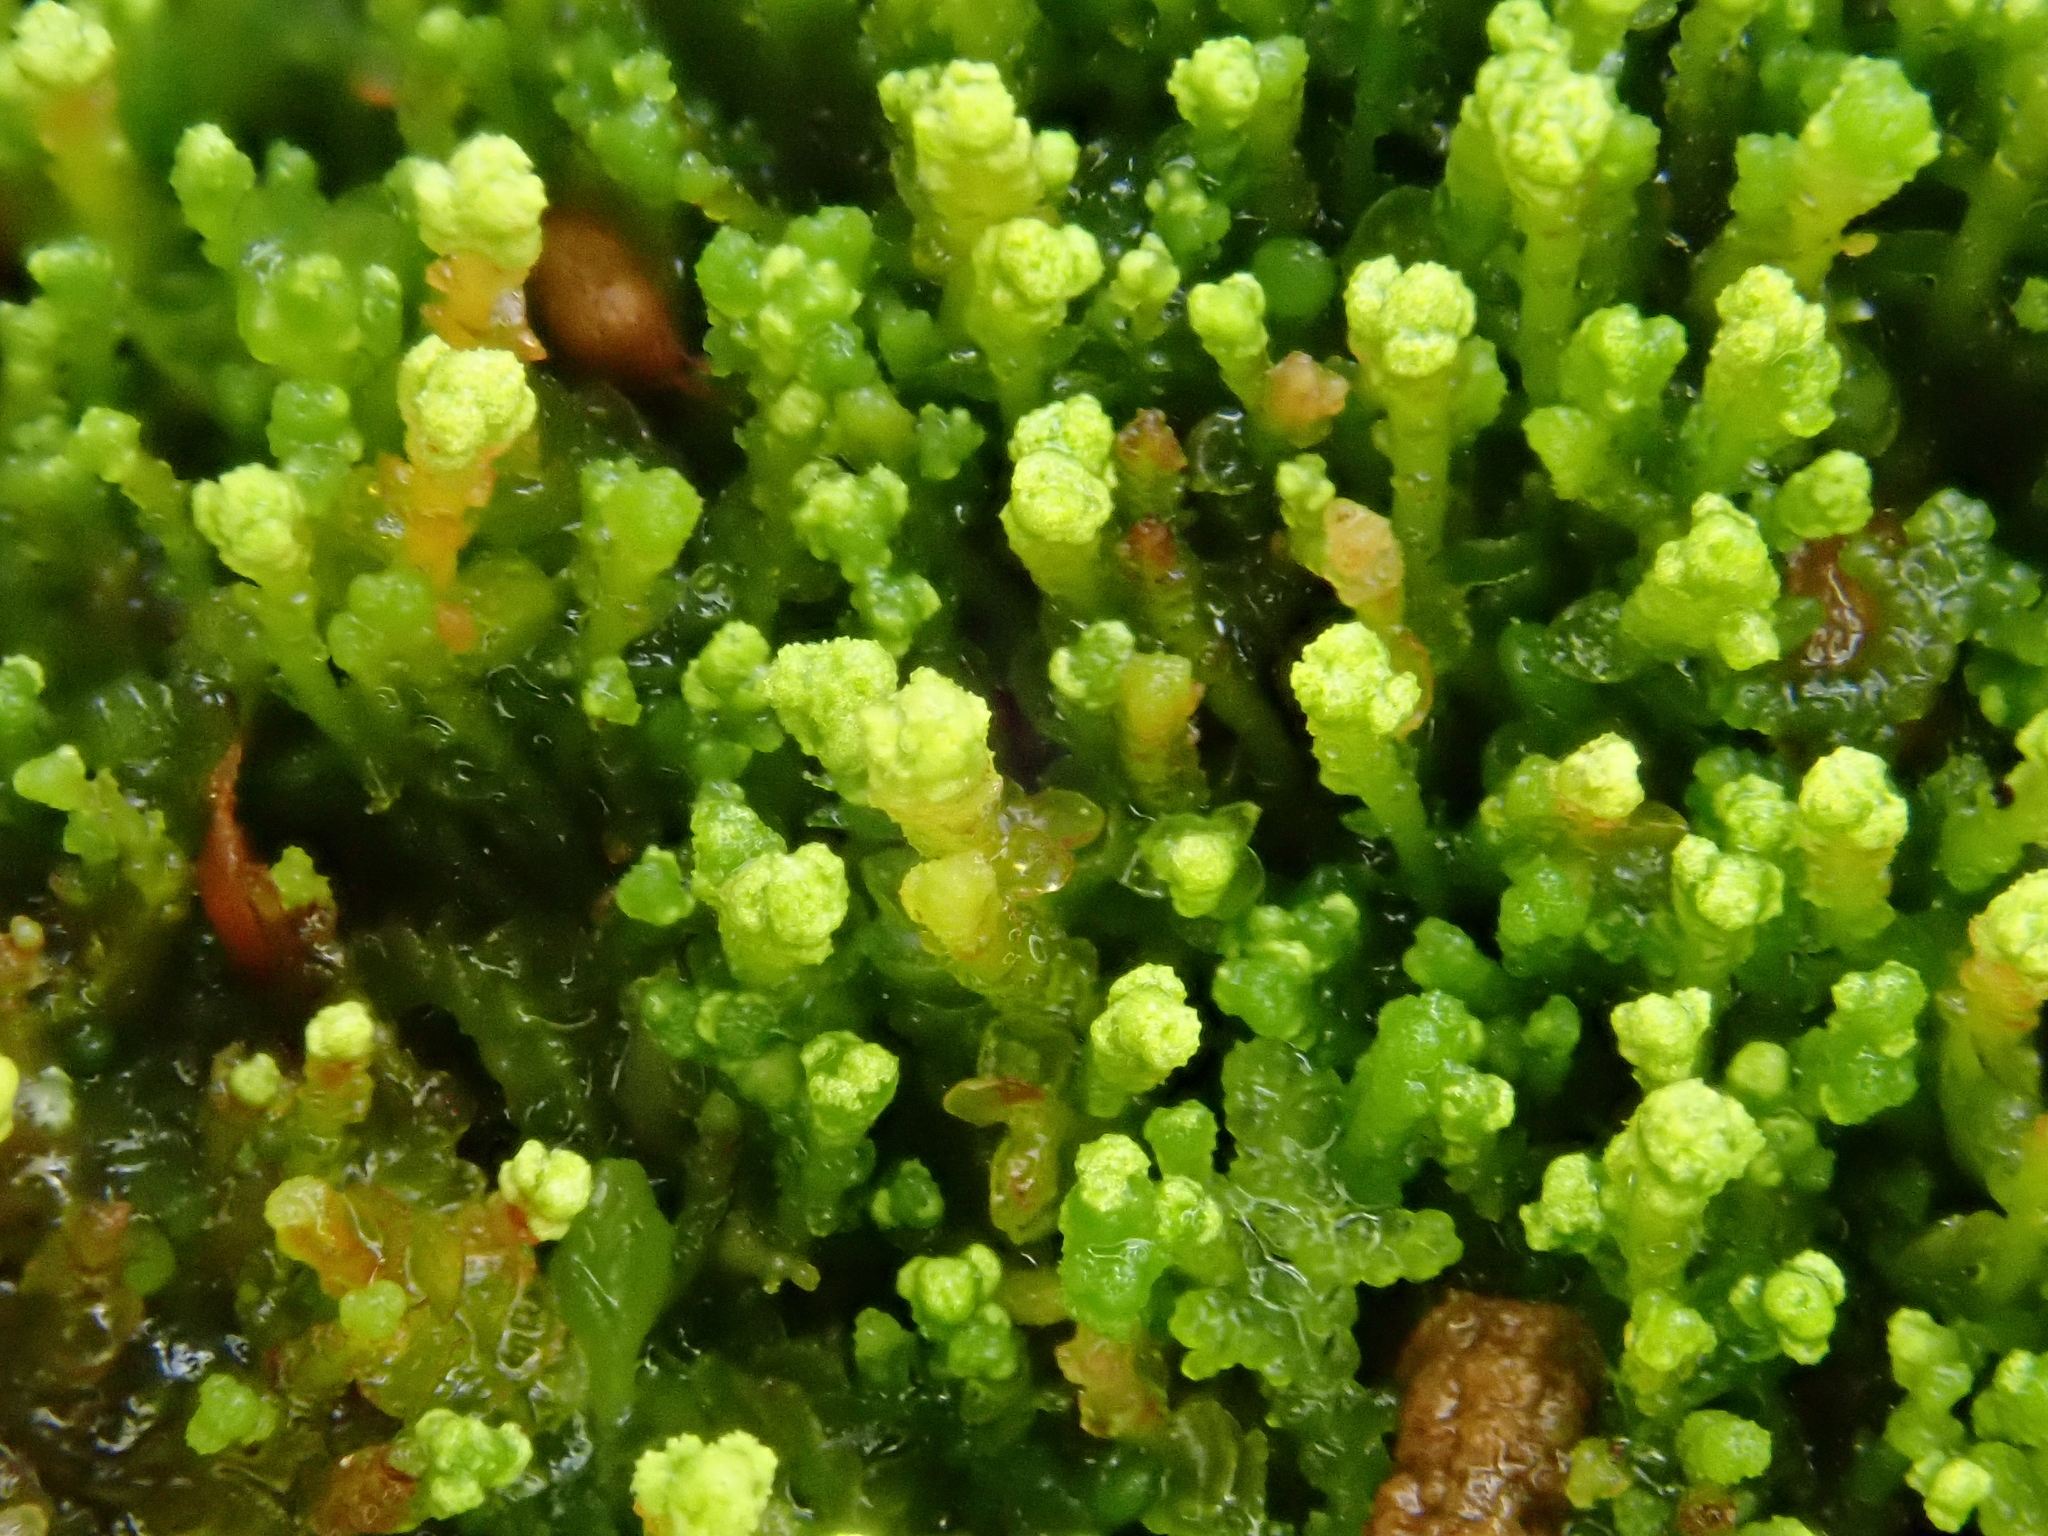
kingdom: Plantae
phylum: Marchantiophyta
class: Jungermanniopsida
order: Jungermanniales
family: Cephaloziaceae
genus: Odontoschisma
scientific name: Odontoschisma denudatum
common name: Matchstick flapwort
